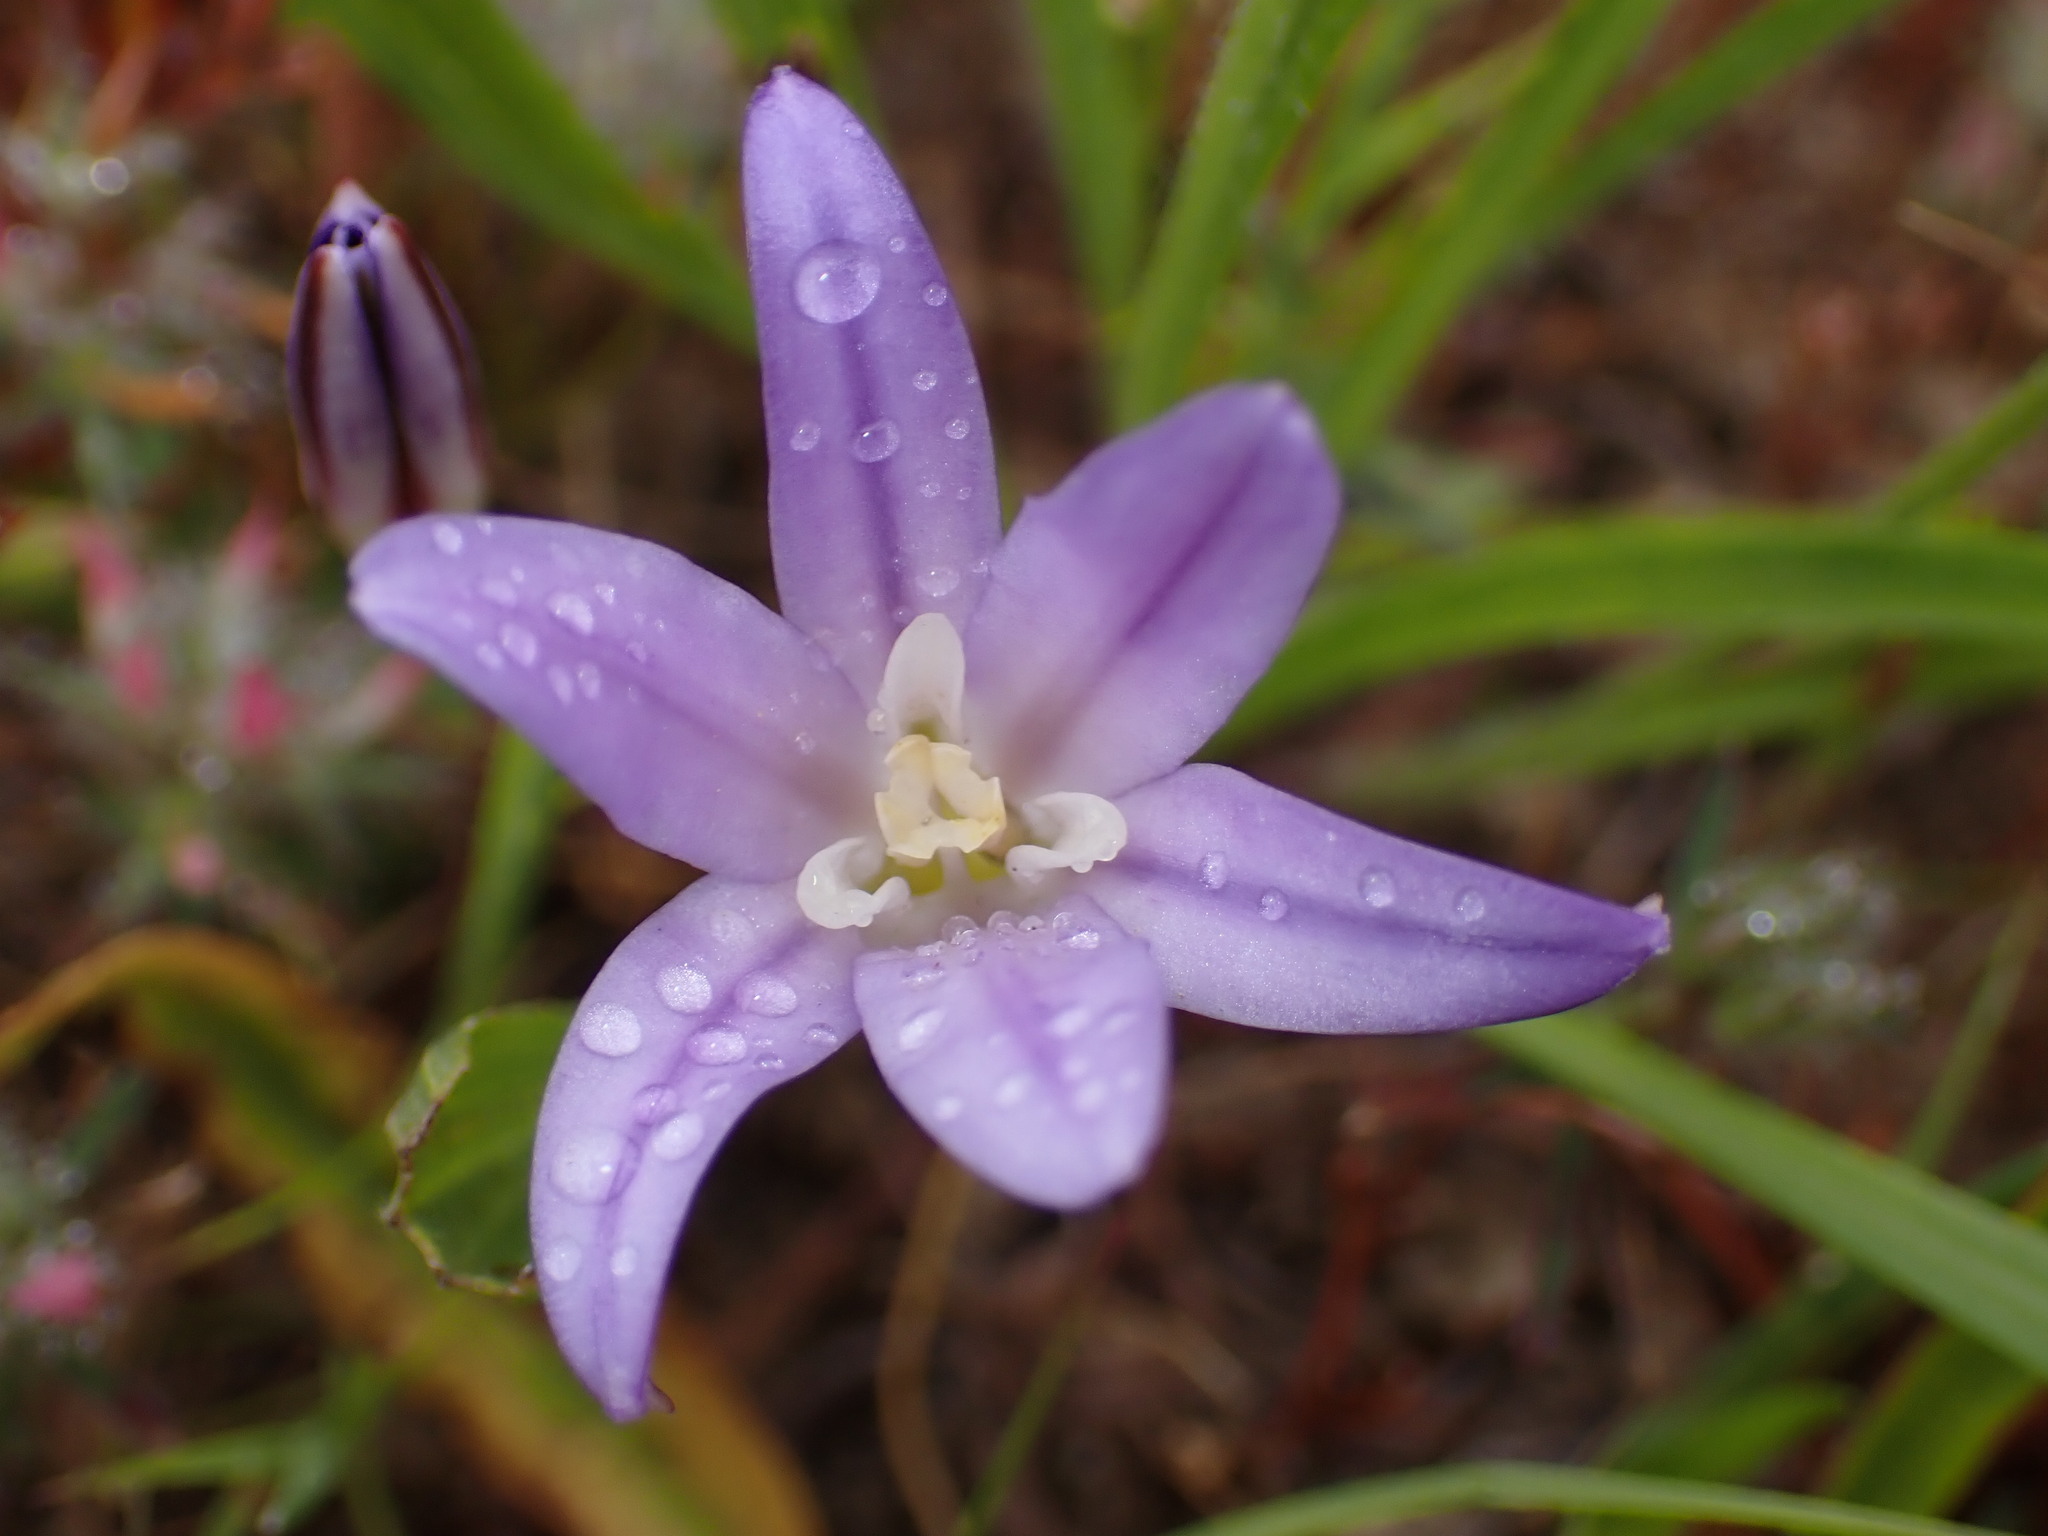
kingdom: Plantae
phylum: Tracheophyta
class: Liliopsida
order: Asparagales
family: Asparagaceae
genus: Brodiaea
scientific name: Brodiaea terrestris
